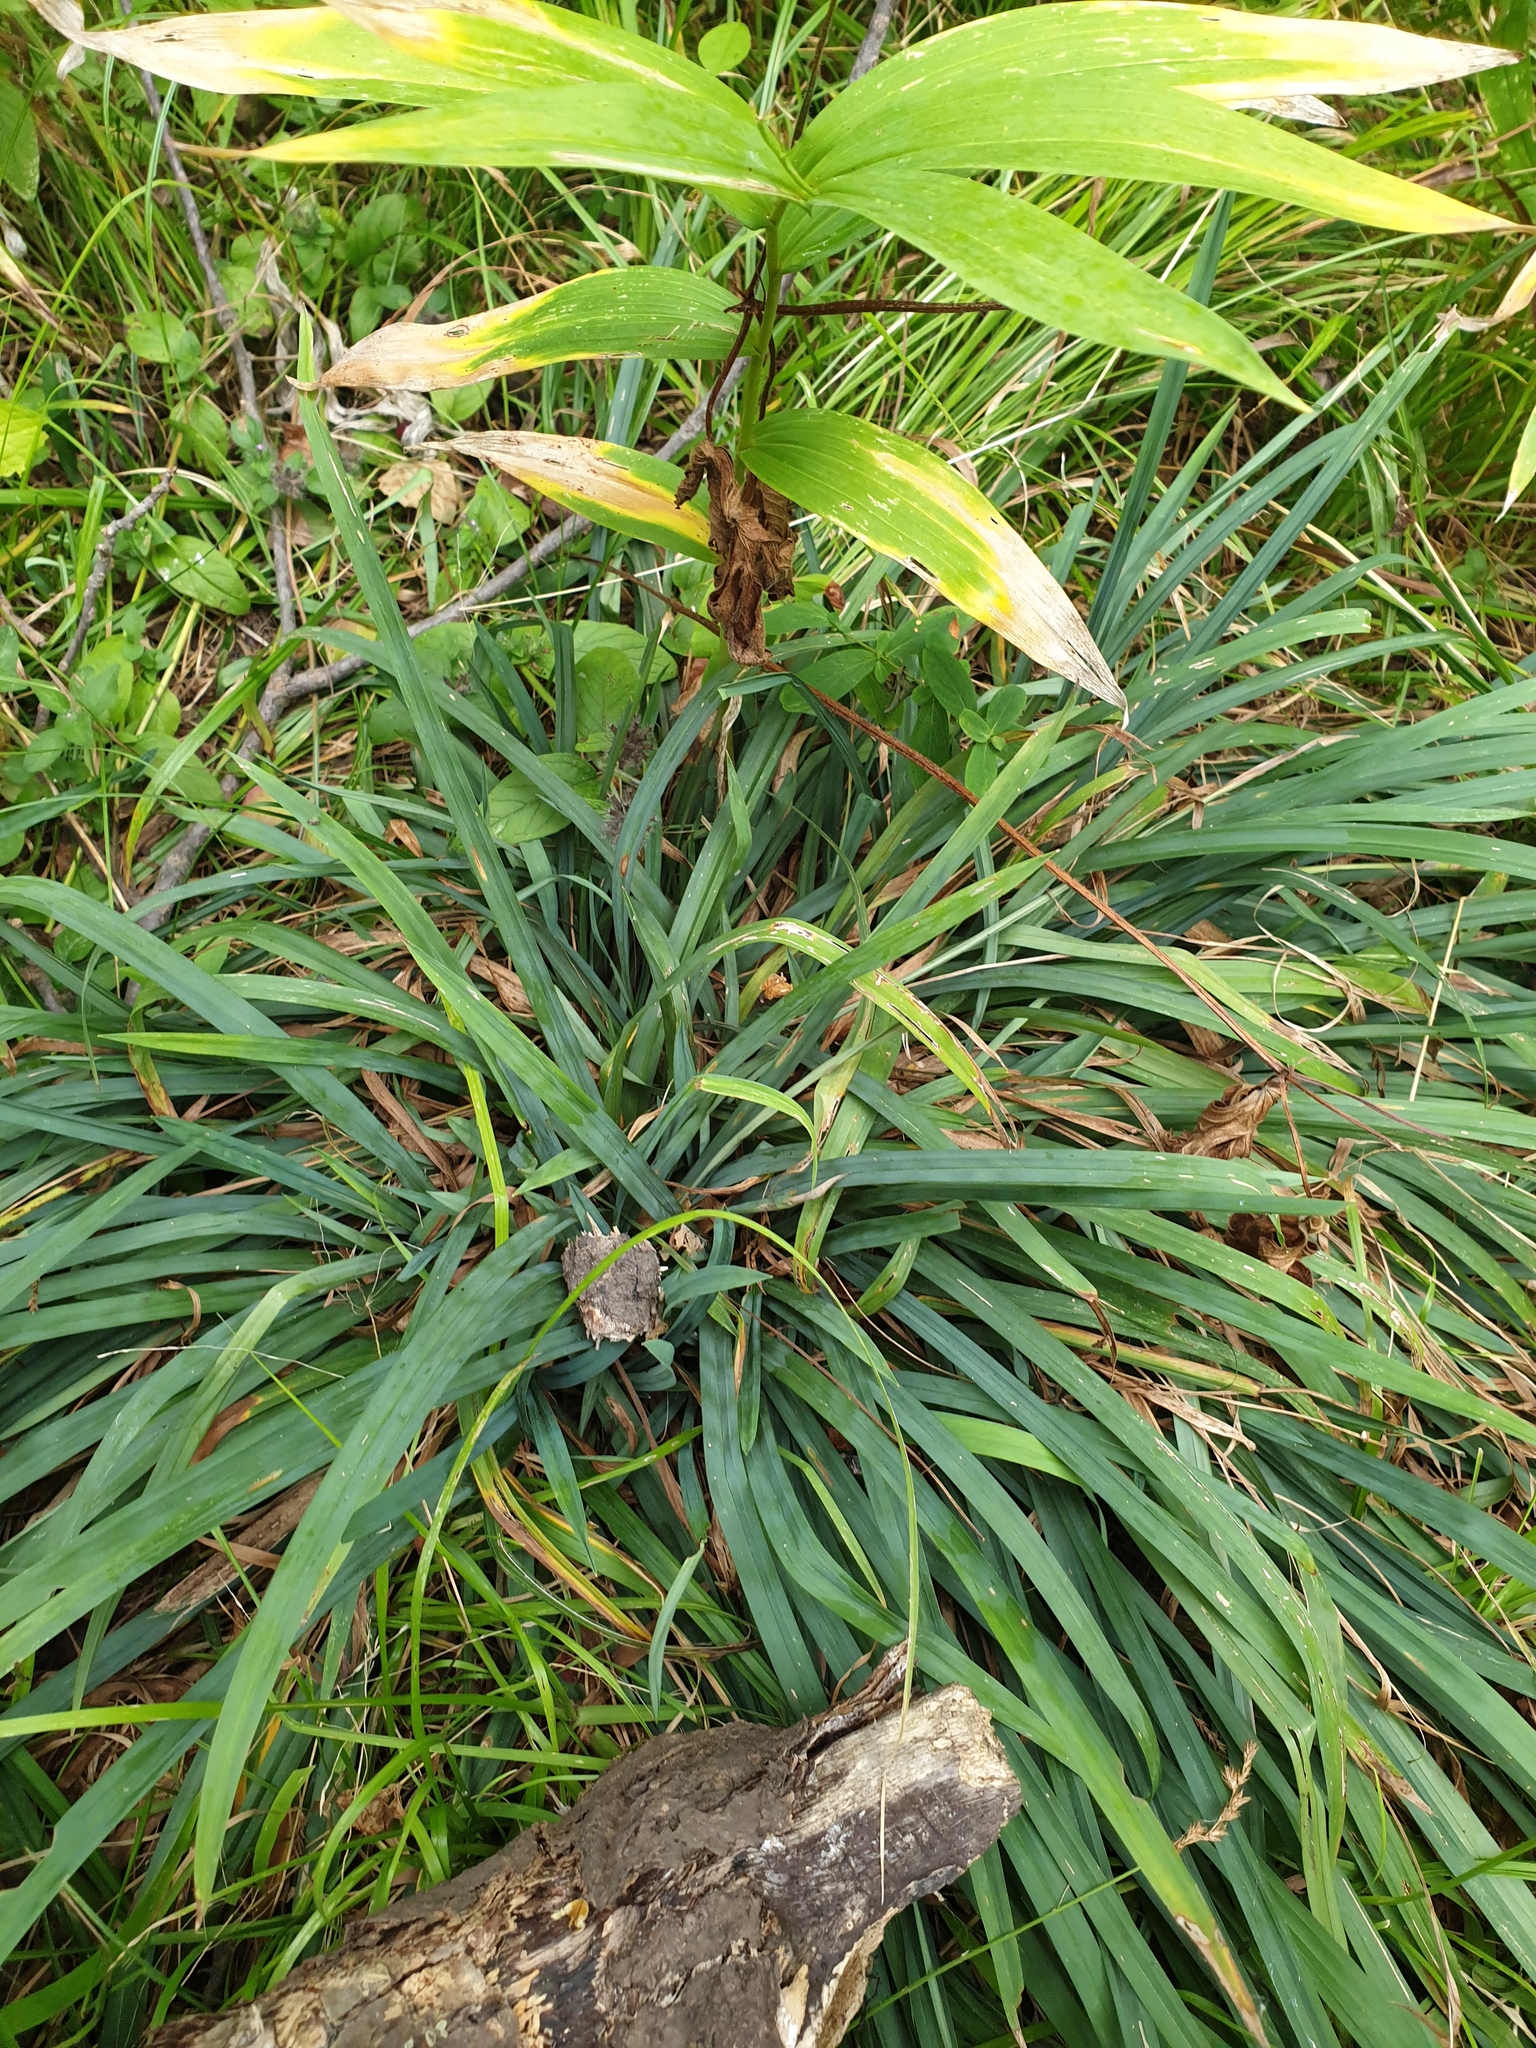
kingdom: Plantae
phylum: Tracheophyta
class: Liliopsida
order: Poales
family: Cyperaceae
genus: Carex
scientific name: Carex laxiculmis
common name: Spreading sedge
